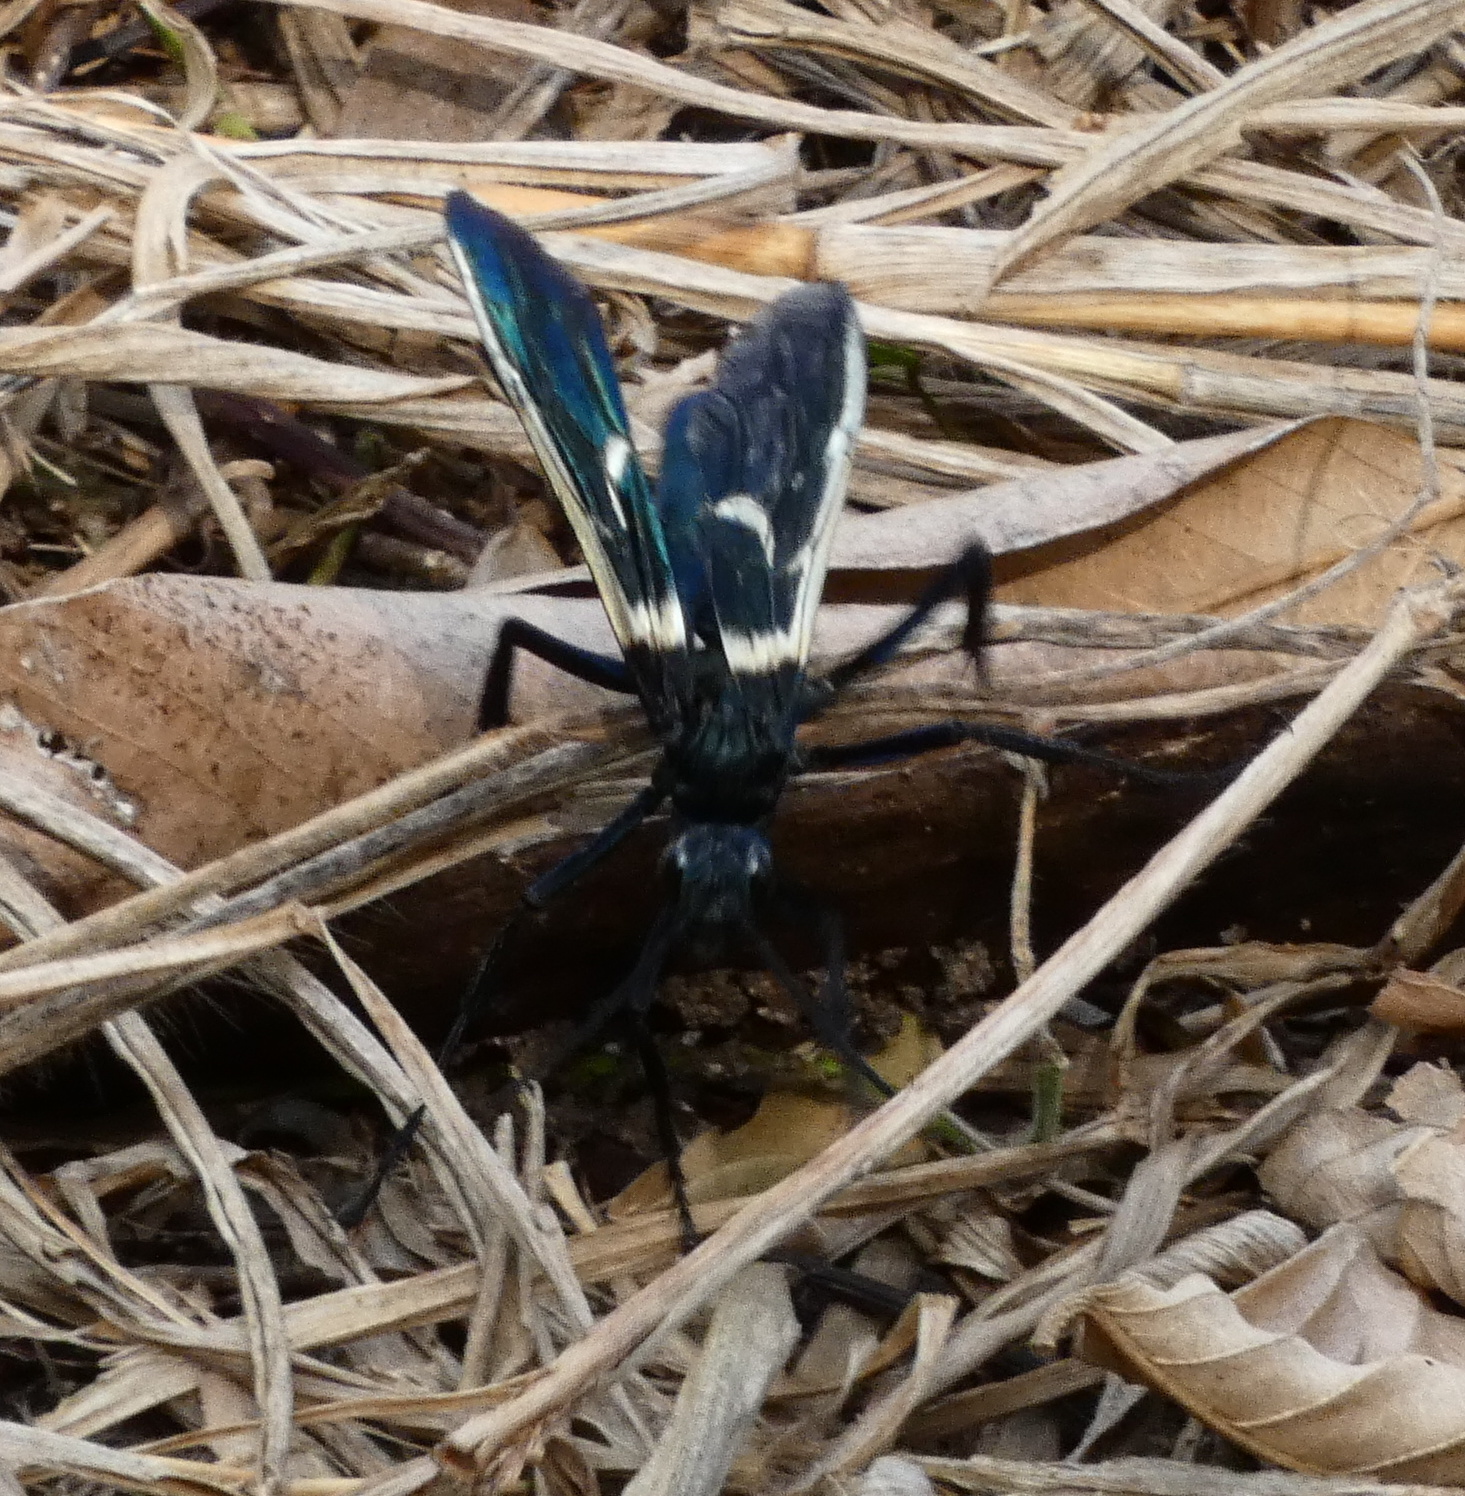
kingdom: Animalia
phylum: Arthropoda
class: Insecta
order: Hymenoptera
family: Pompilidae
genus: Pepsis
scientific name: Pepsis decorata
